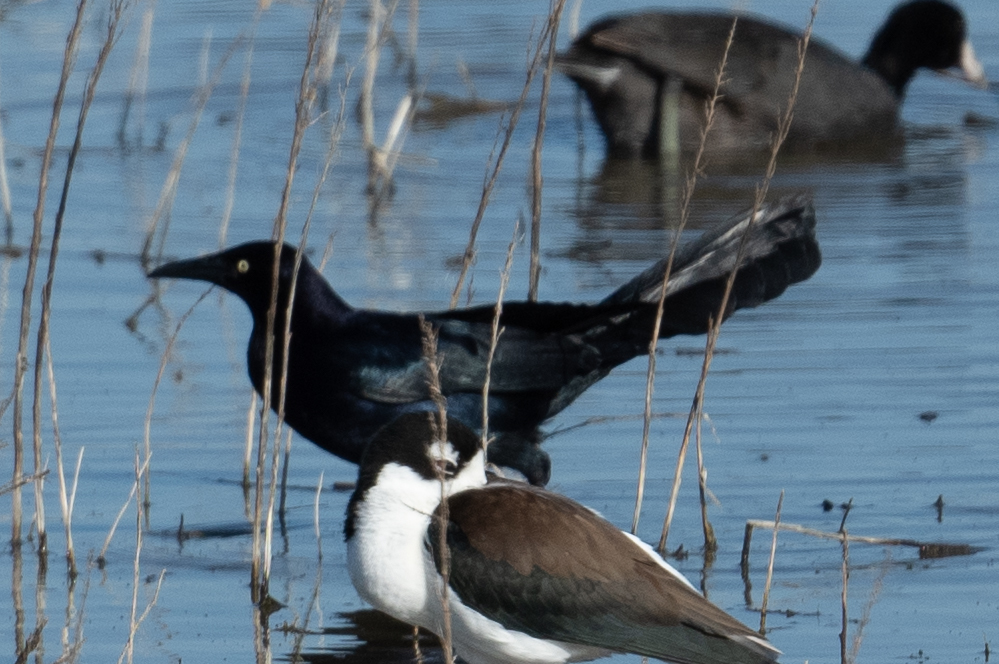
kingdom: Animalia
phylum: Chordata
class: Aves
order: Passeriformes
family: Icteridae
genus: Quiscalus
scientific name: Quiscalus mexicanus
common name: Great-tailed grackle
